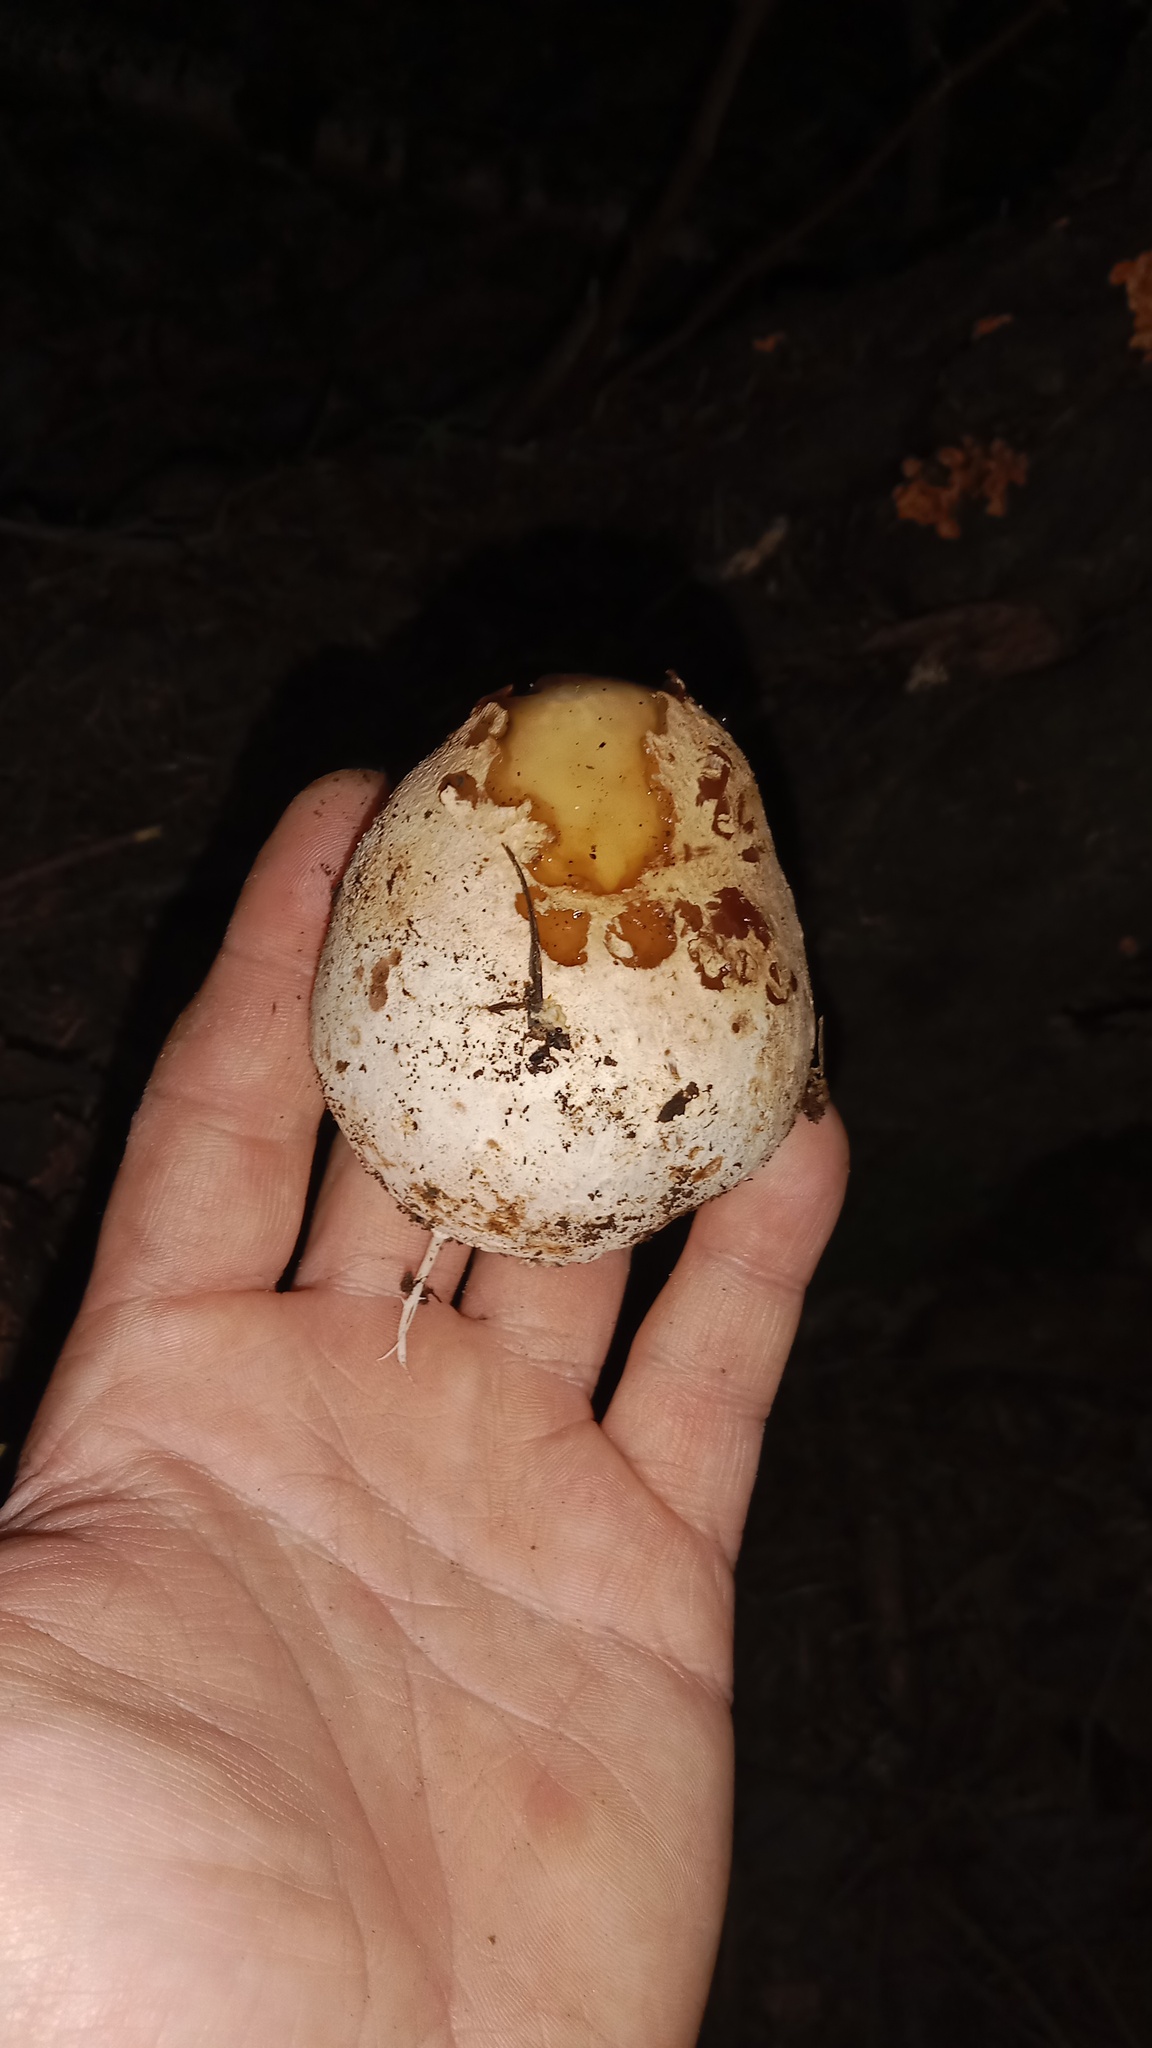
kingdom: Fungi
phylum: Basidiomycota
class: Agaricomycetes
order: Phallales
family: Phallaceae
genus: Phallus
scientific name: Phallus impudicus
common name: Common stinkhorn
